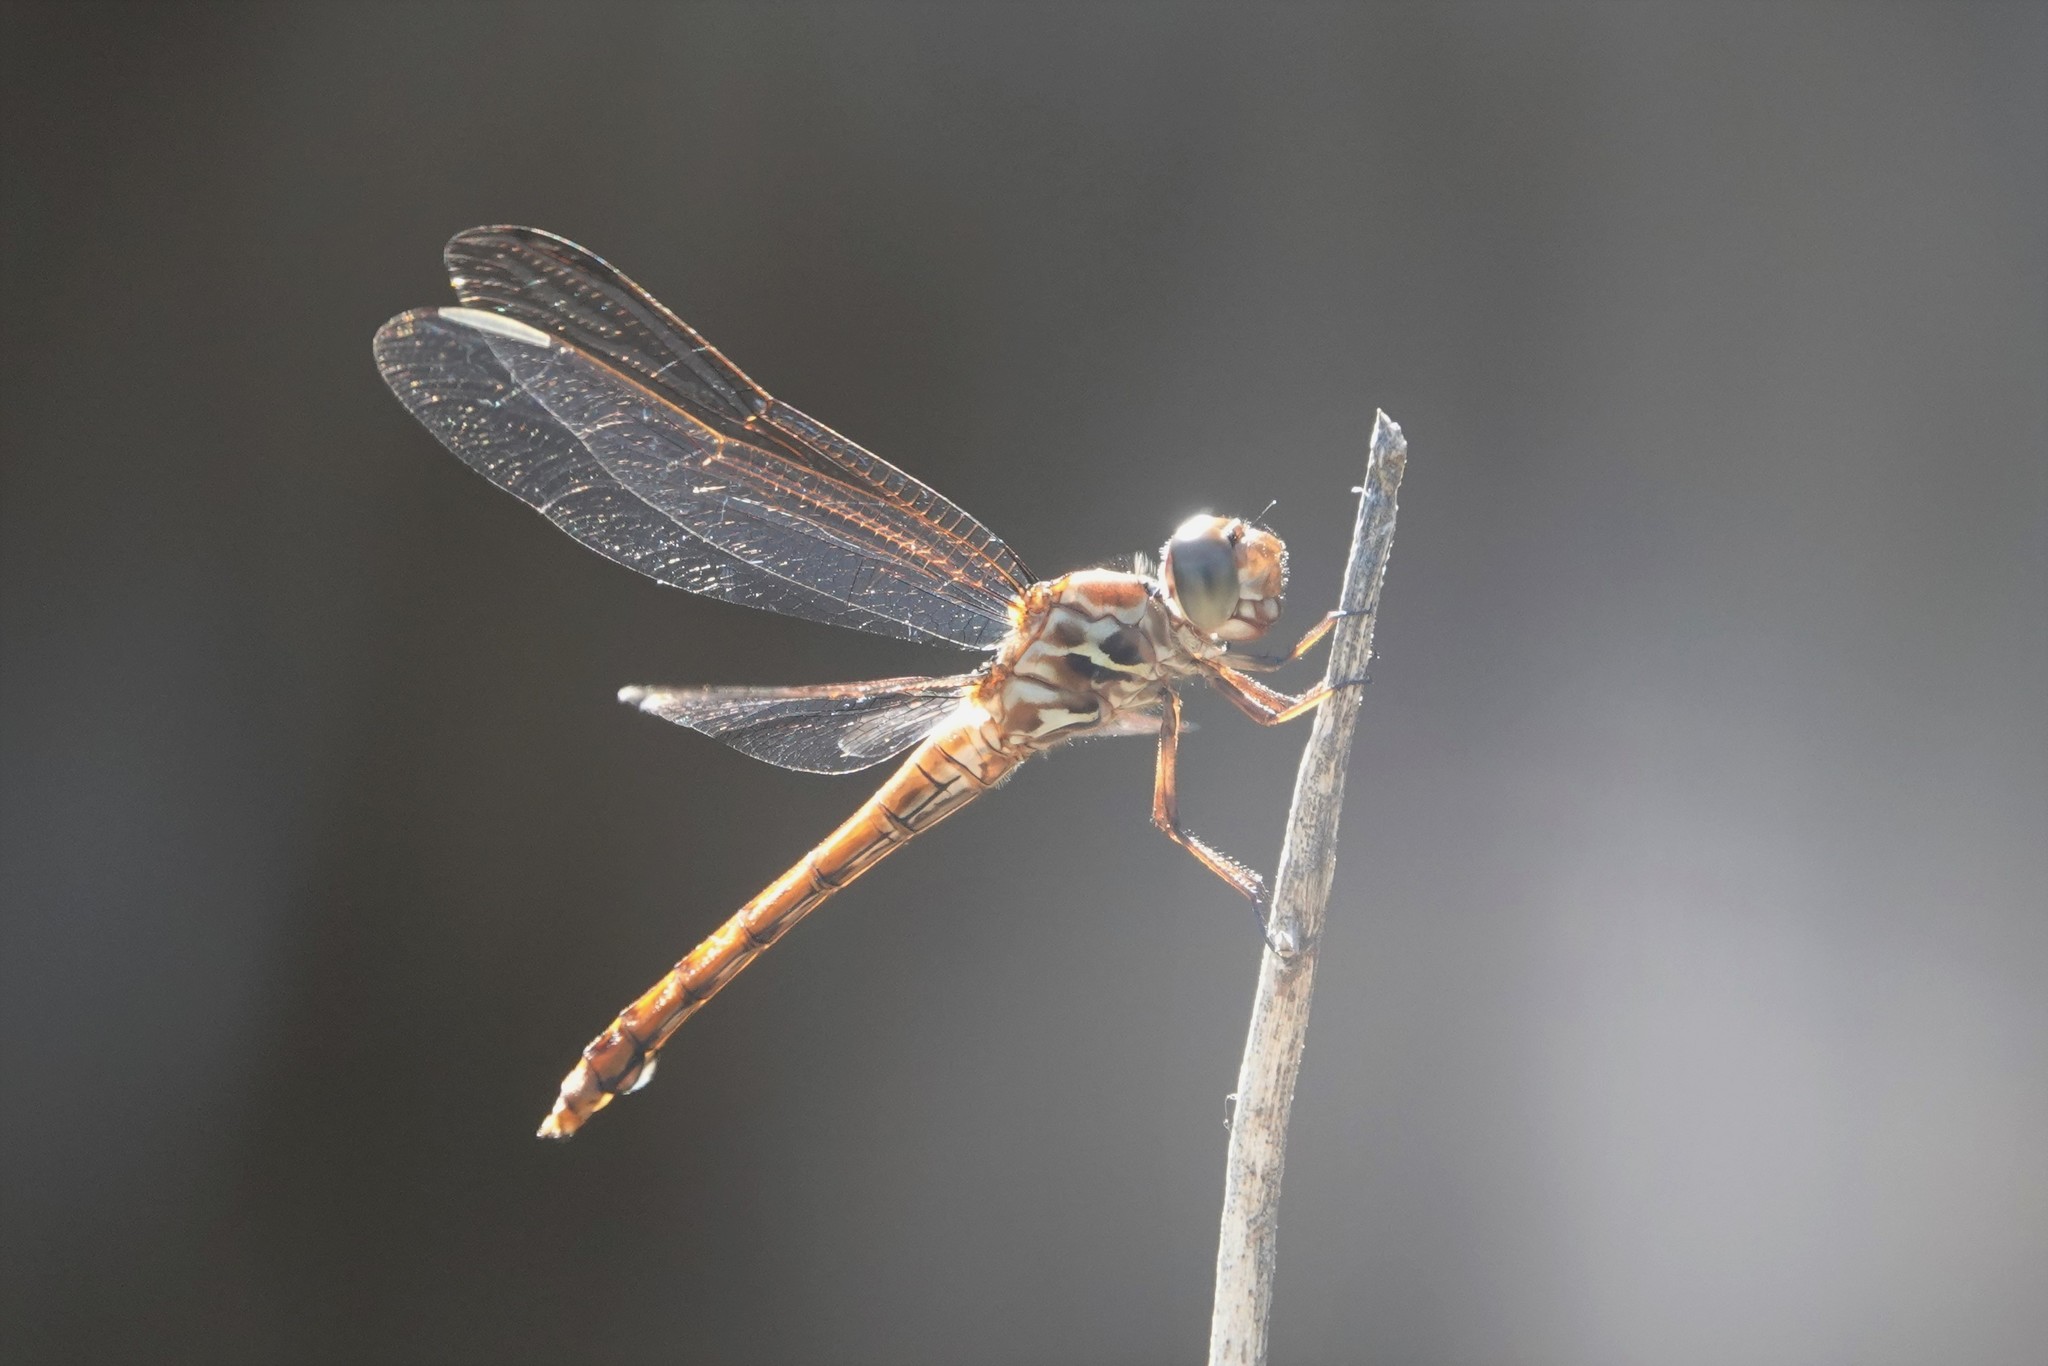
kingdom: Animalia
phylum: Arthropoda
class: Insecta
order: Odonata
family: Libellulidae
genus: Orthemis
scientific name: Orthemis ferruginea
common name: Roseate skimmer
